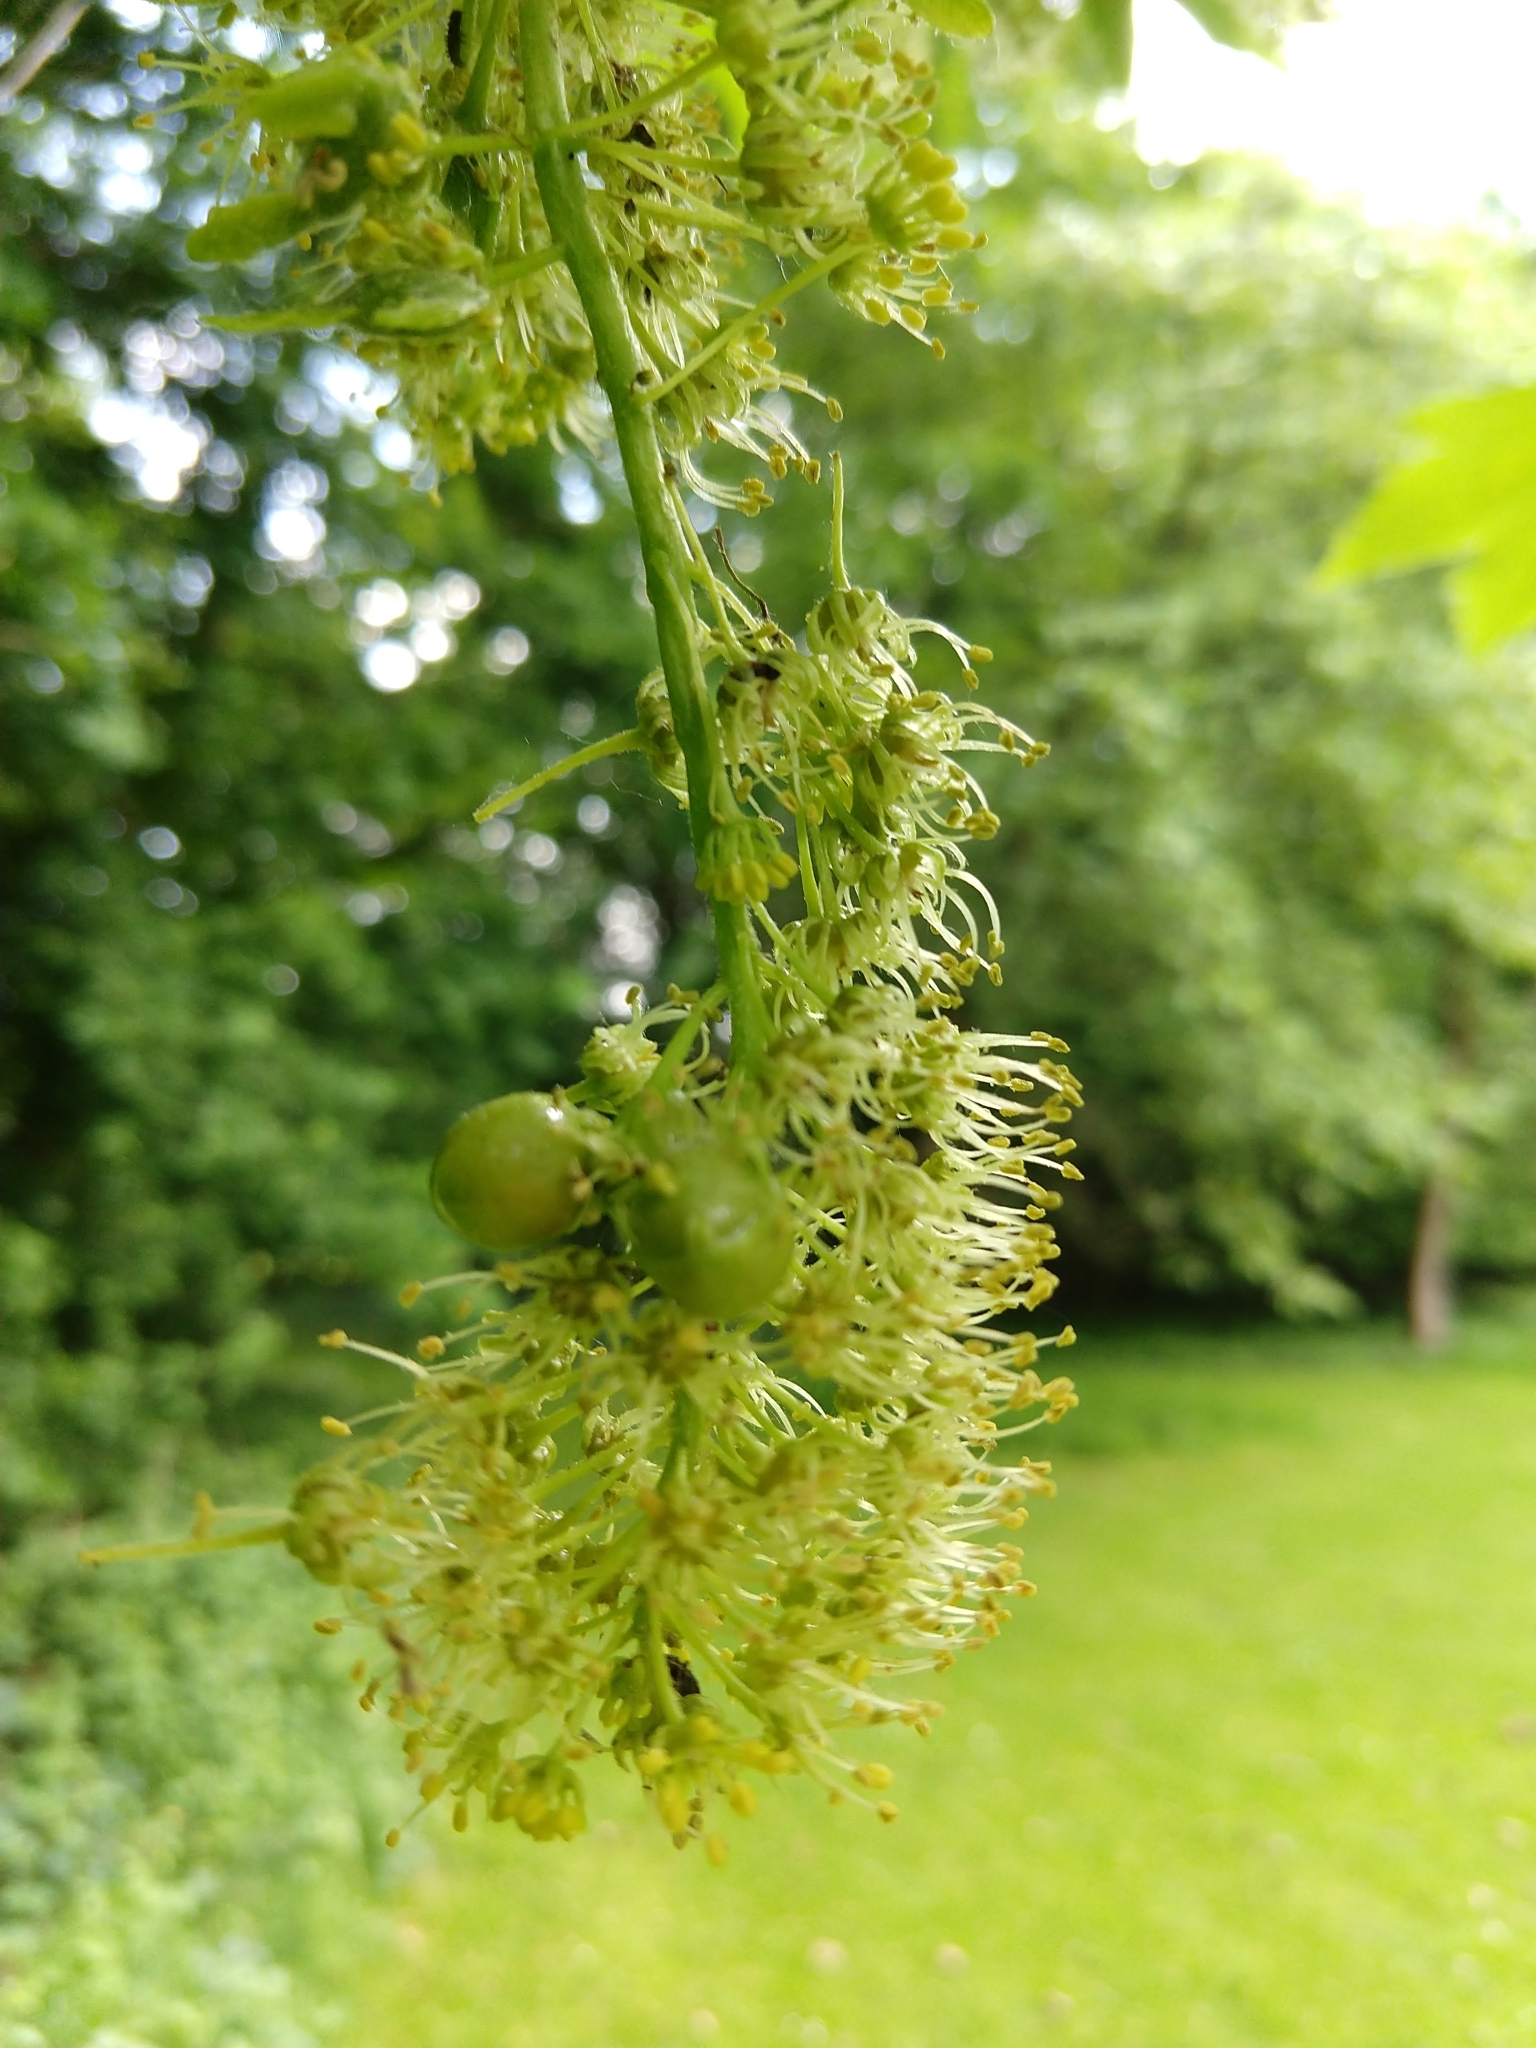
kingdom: Animalia
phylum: Arthropoda
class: Insecta
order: Hymenoptera
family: Cynipidae
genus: Pediaspis
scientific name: Pediaspis aceris
